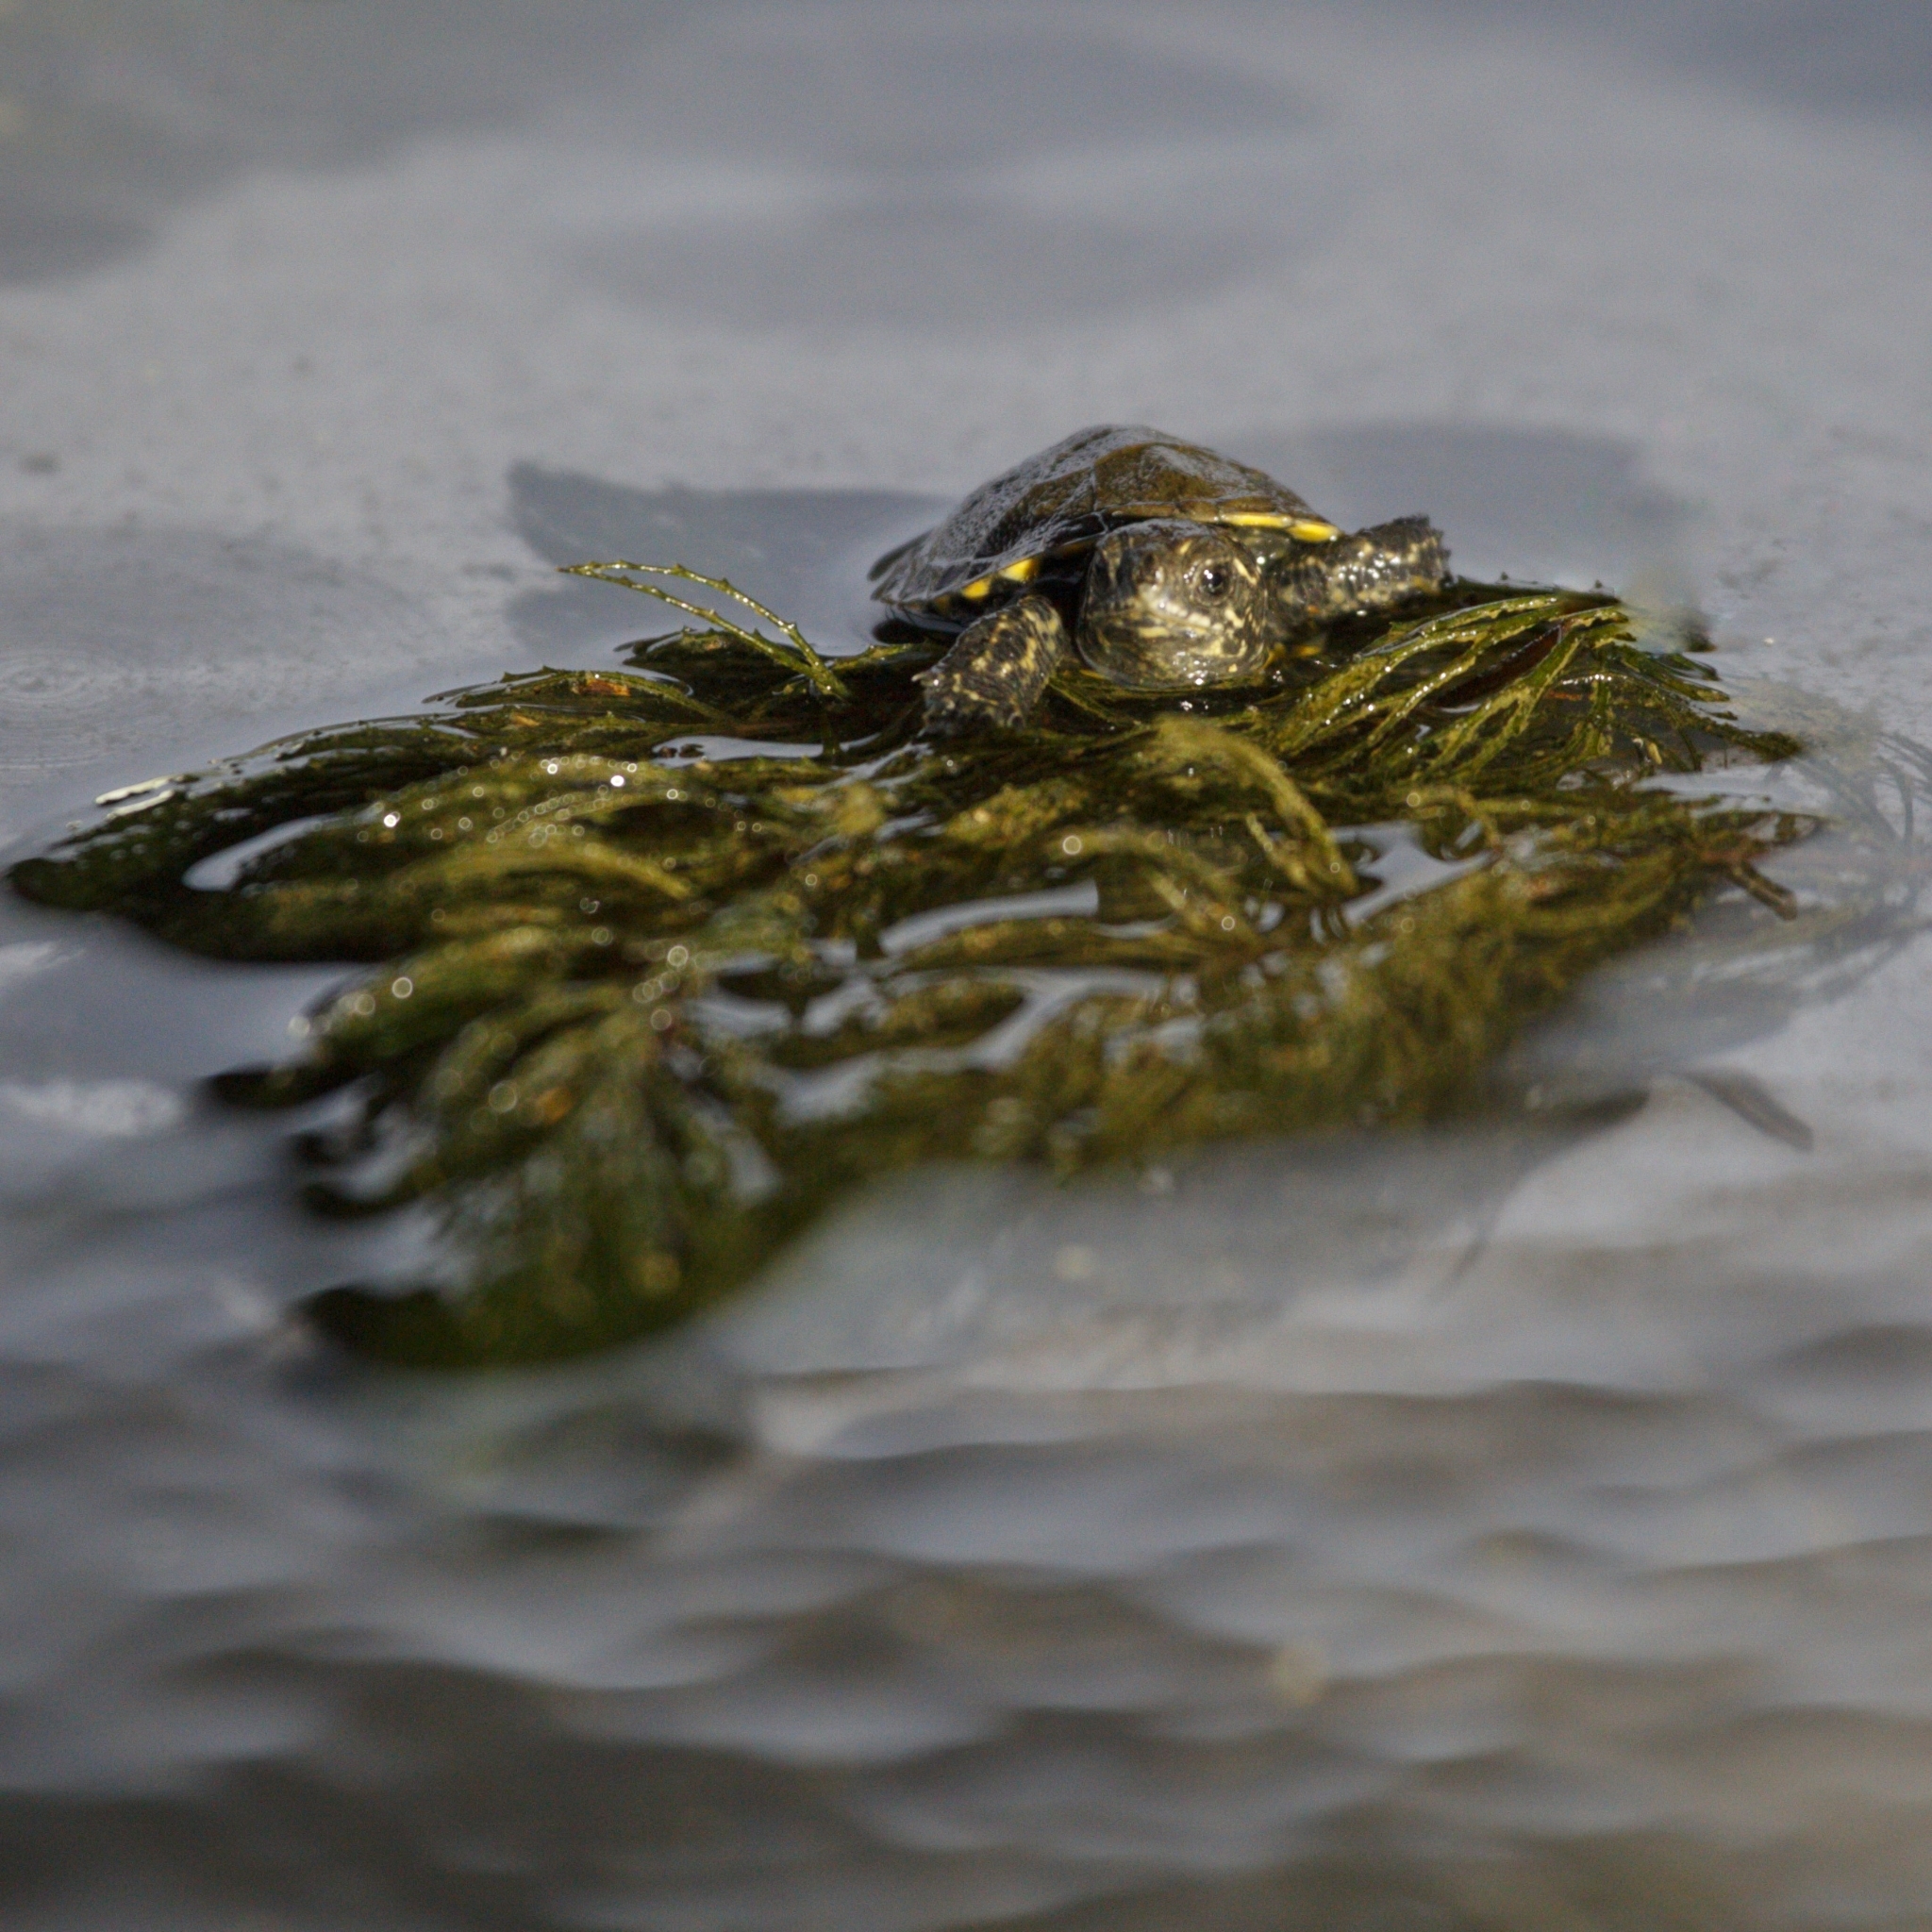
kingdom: Animalia
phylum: Chordata
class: Testudines
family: Emydidae
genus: Emys
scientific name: Emys orbicularis
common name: European pond turtle
